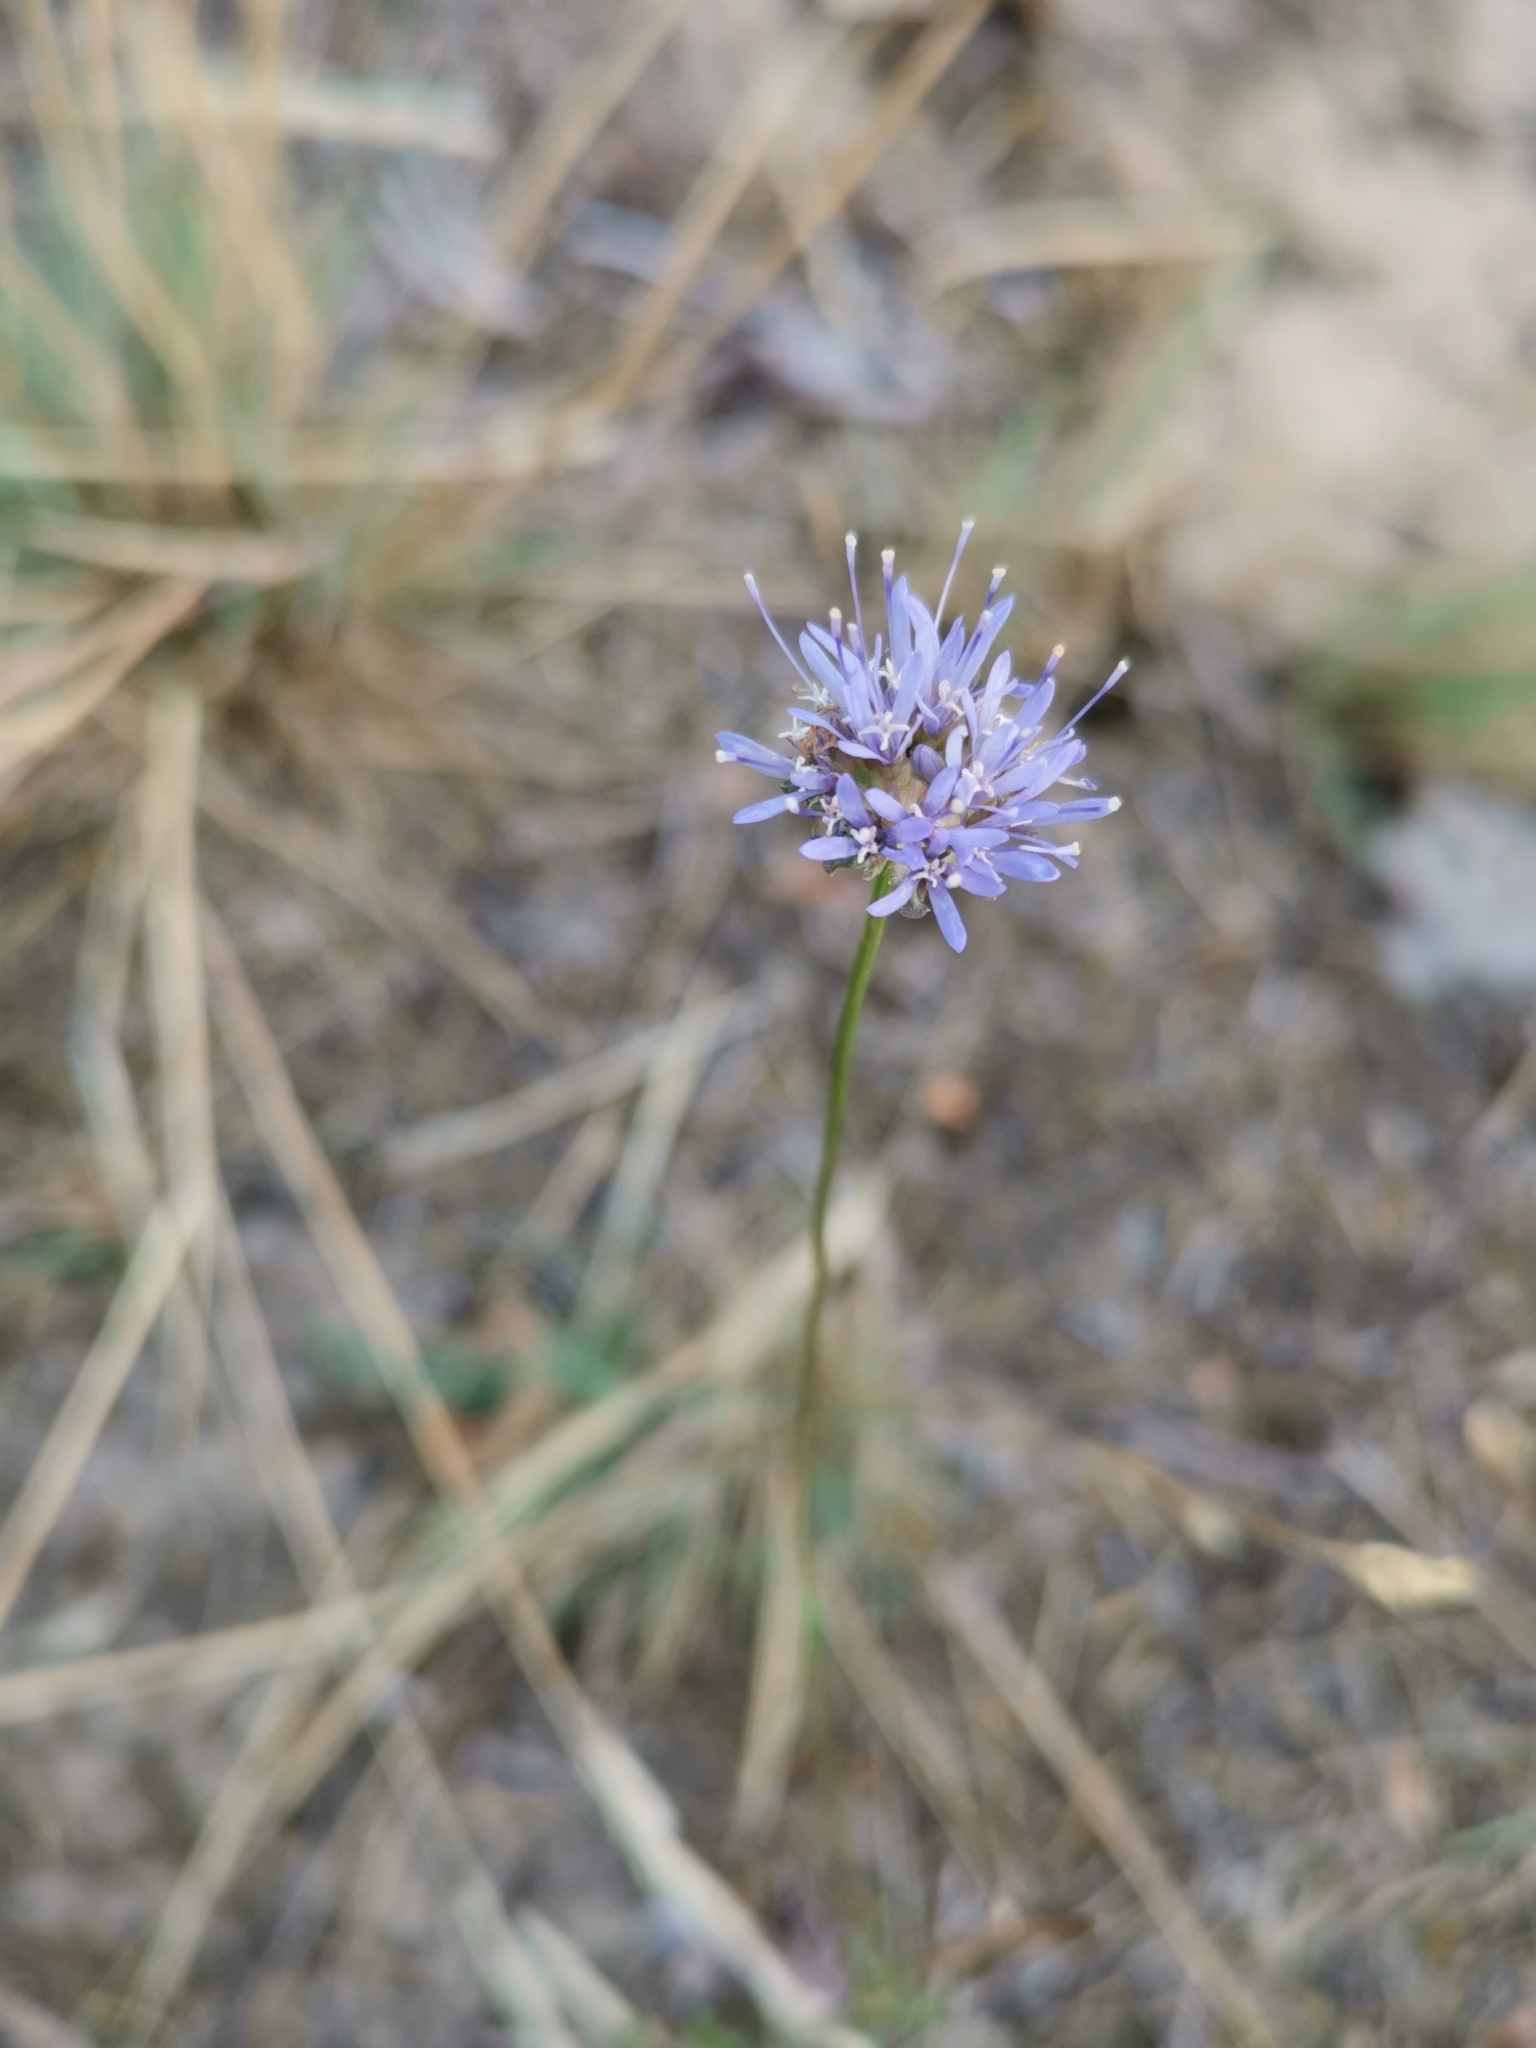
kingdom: Plantae
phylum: Tracheophyta
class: Magnoliopsida
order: Asterales
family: Campanulaceae
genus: Jasione
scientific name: Jasione montana
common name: Sheep's-bit
